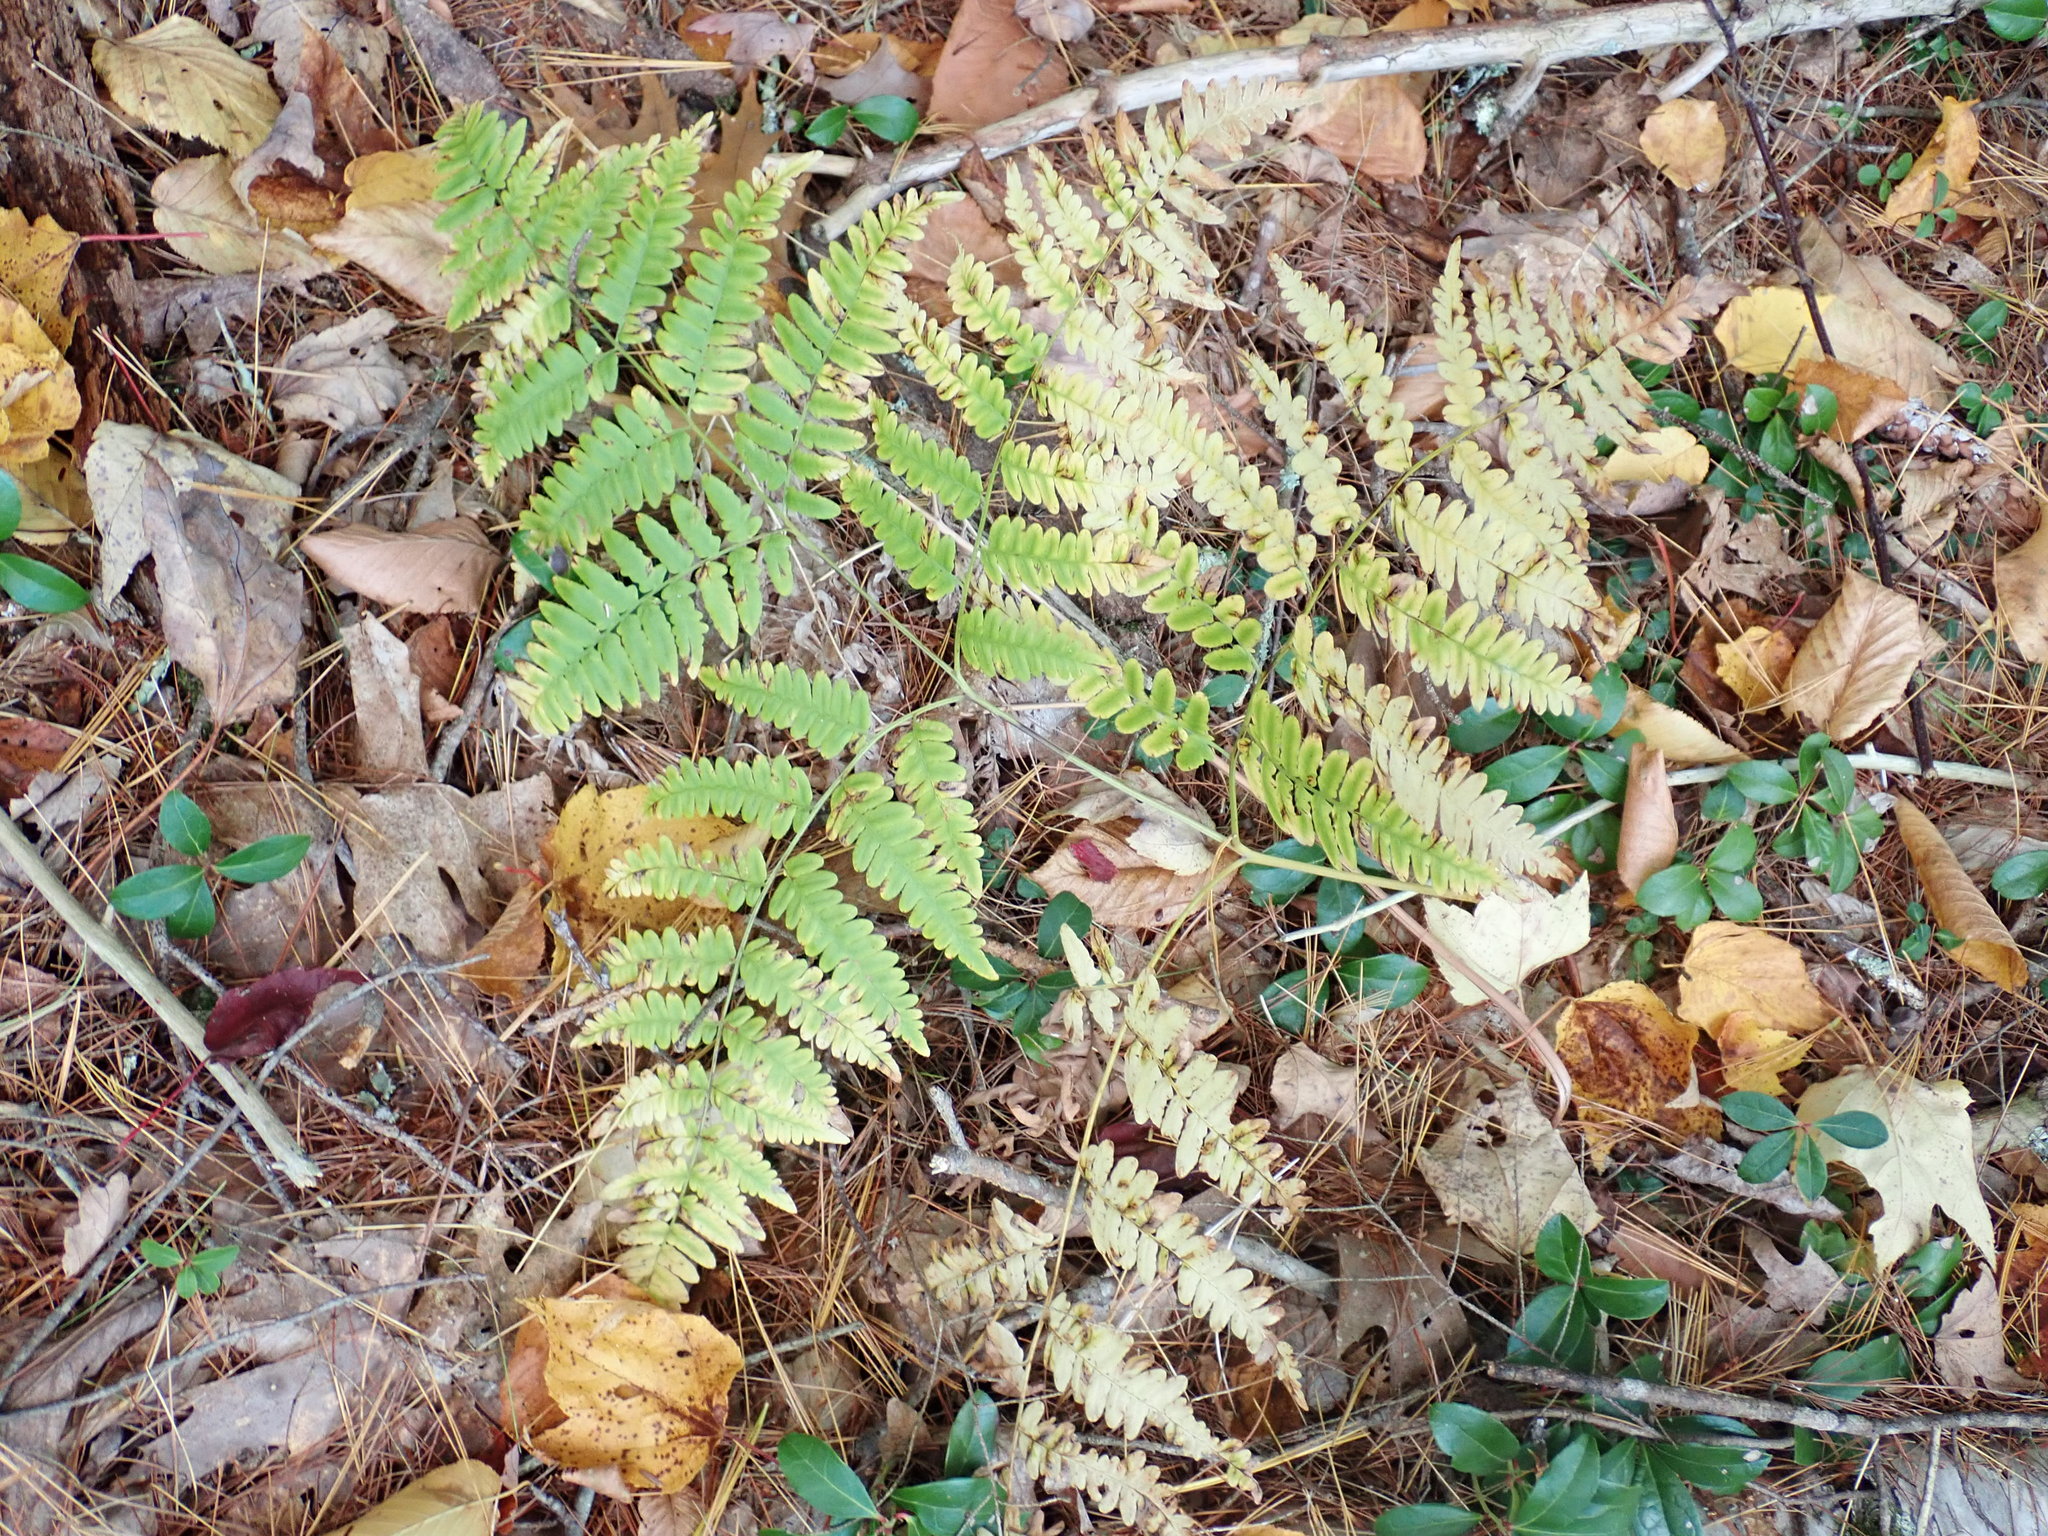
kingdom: Plantae
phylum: Tracheophyta
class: Polypodiopsida
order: Polypodiales
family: Dennstaedtiaceae
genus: Pteridium
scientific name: Pteridium aquilinum
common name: Bracken
